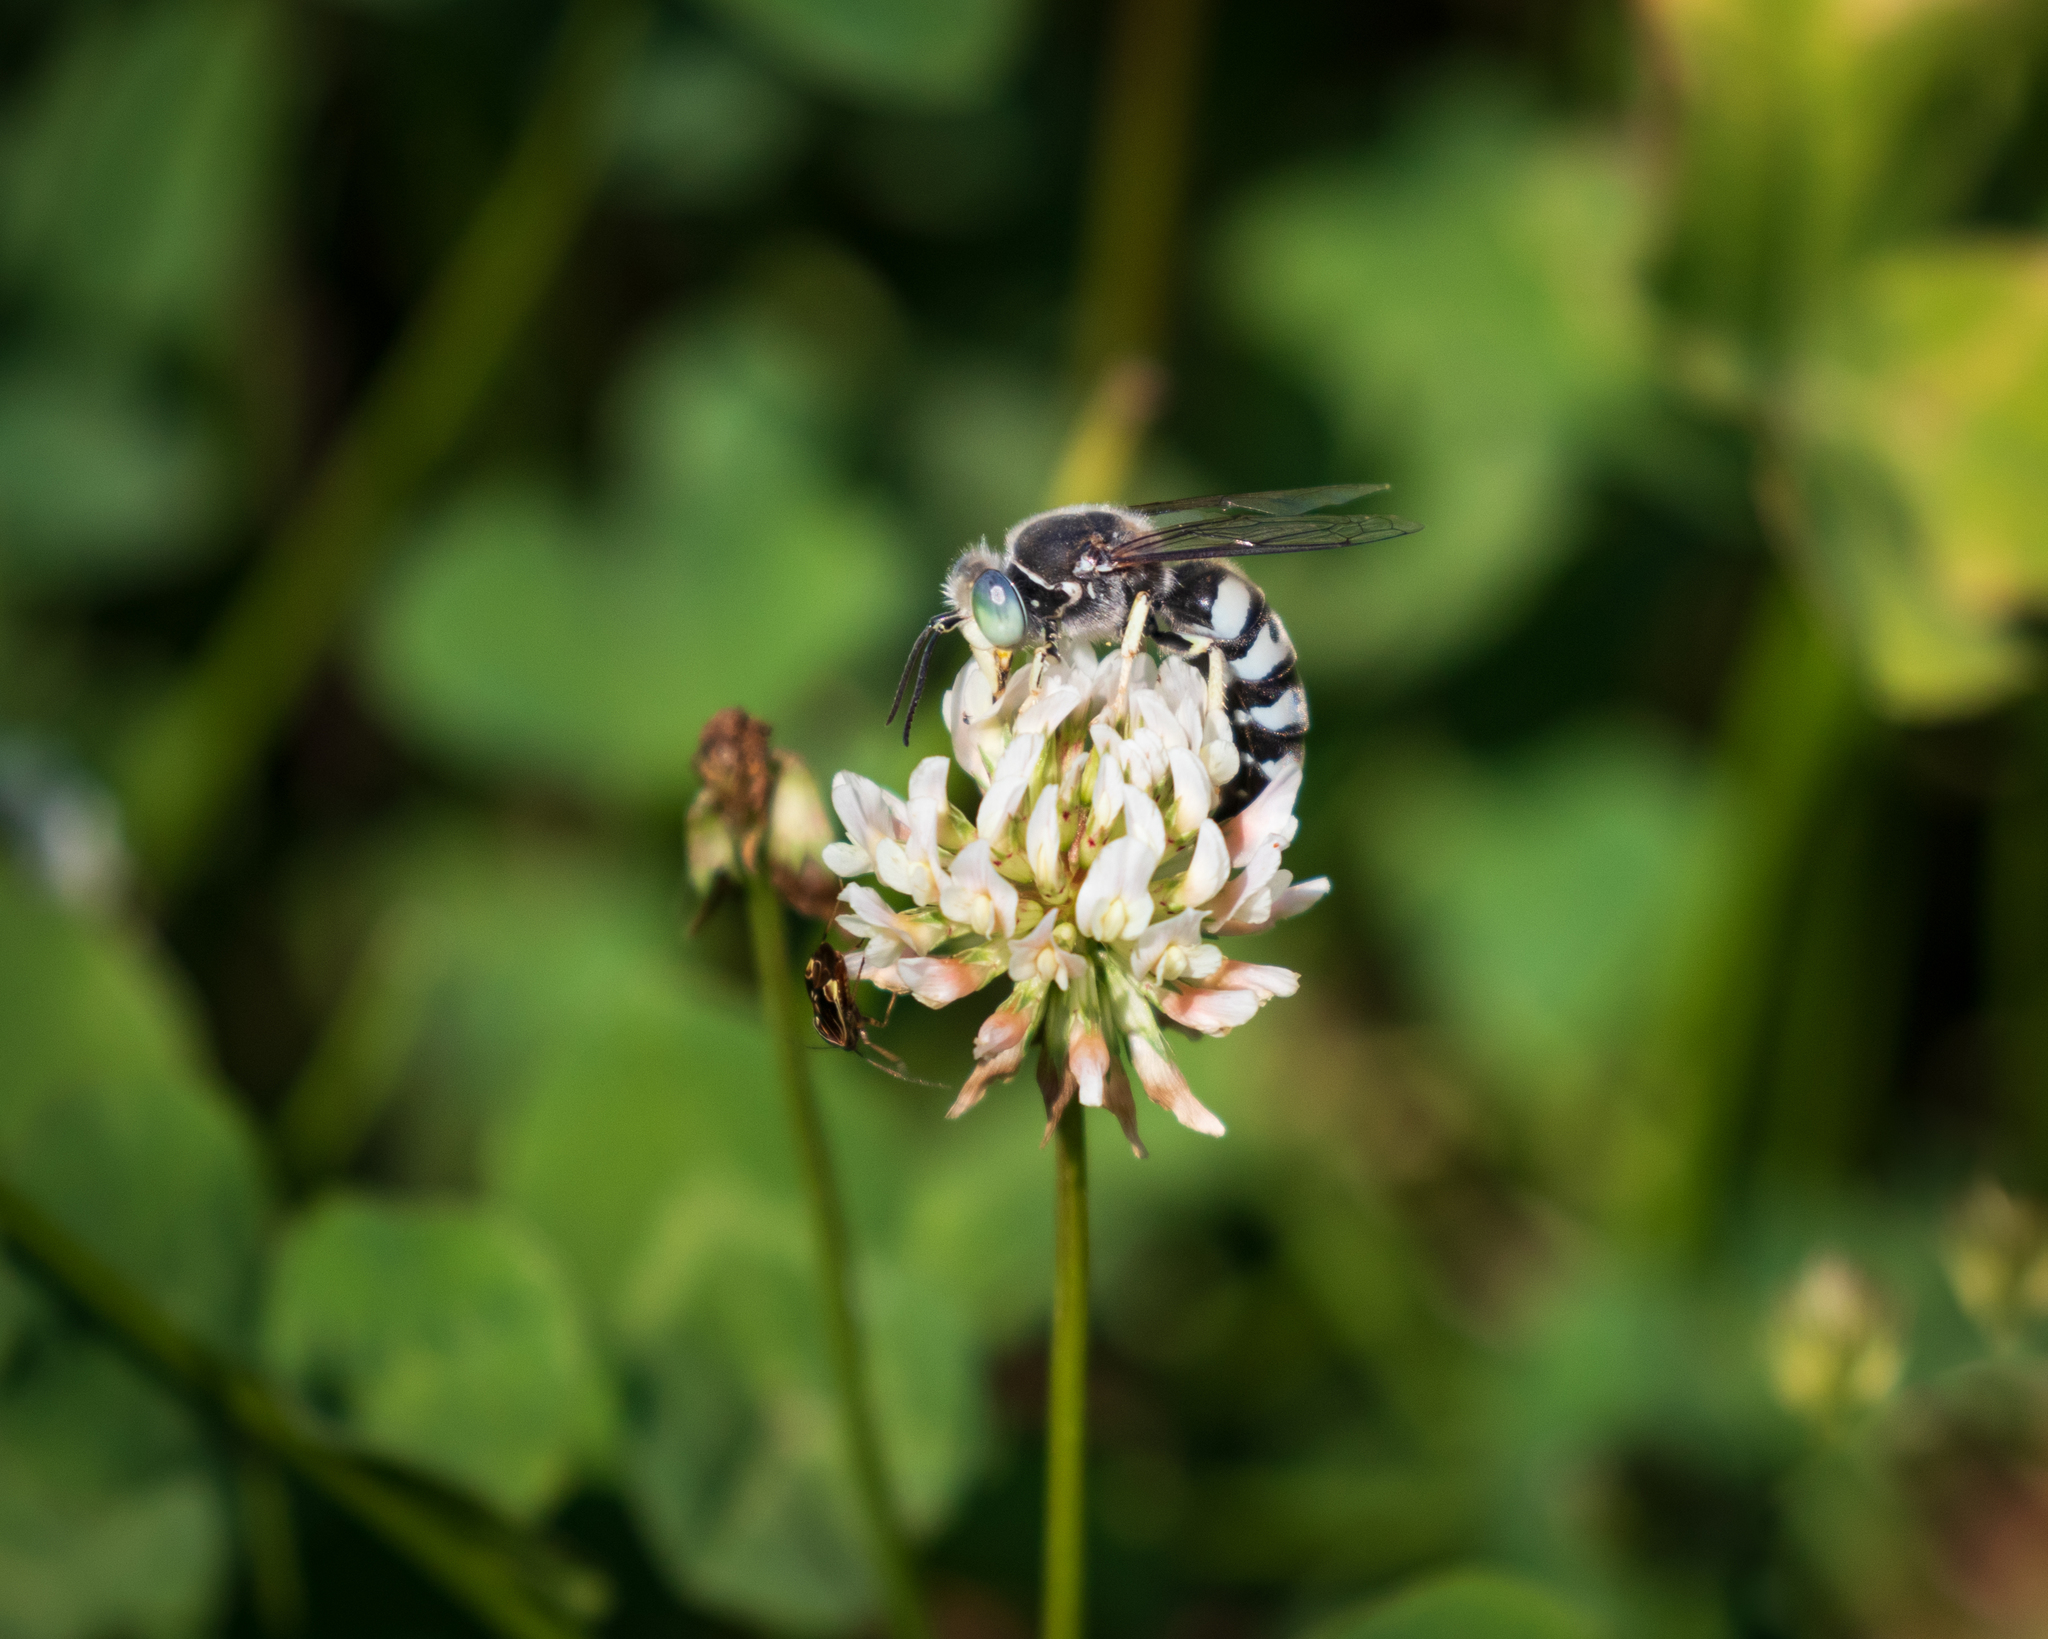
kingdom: Animalia
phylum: Arthropoda
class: Insecta
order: Hymenoptera
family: Crabronidae
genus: Bembix
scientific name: Bembix americana
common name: American sand wasp
